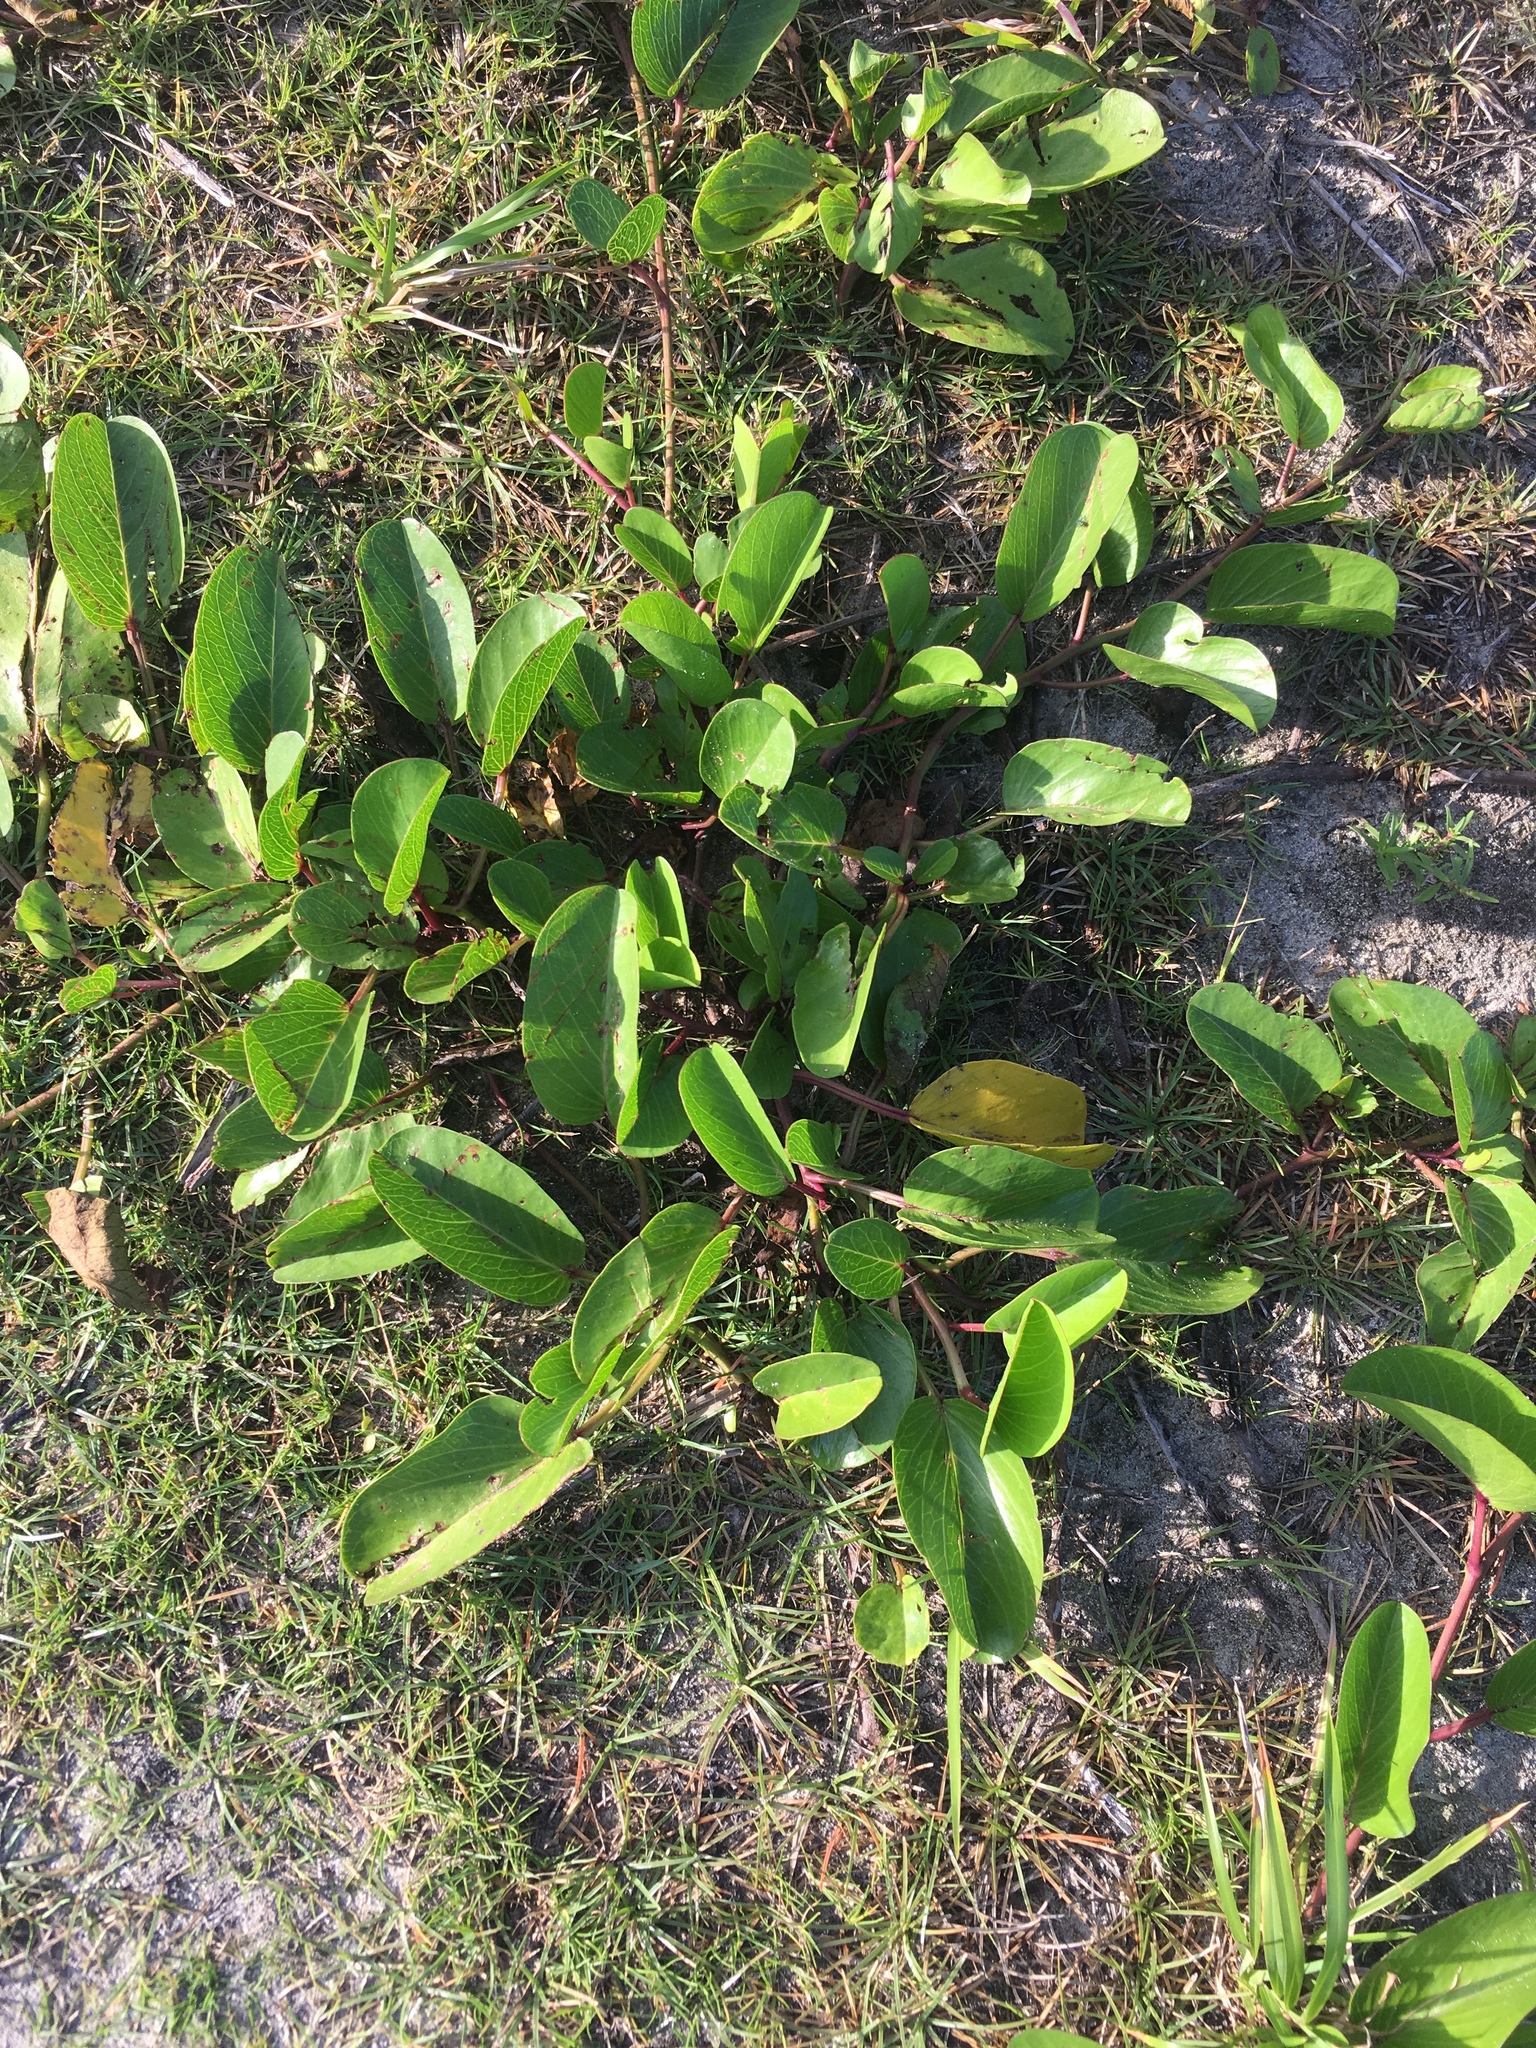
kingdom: Plantae
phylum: Tracheophyta
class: Magnoliopsida
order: Solanales
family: Convolvulaceae
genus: Ipomoea
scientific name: Ipomoea pes-caprae
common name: Beach morning glory
